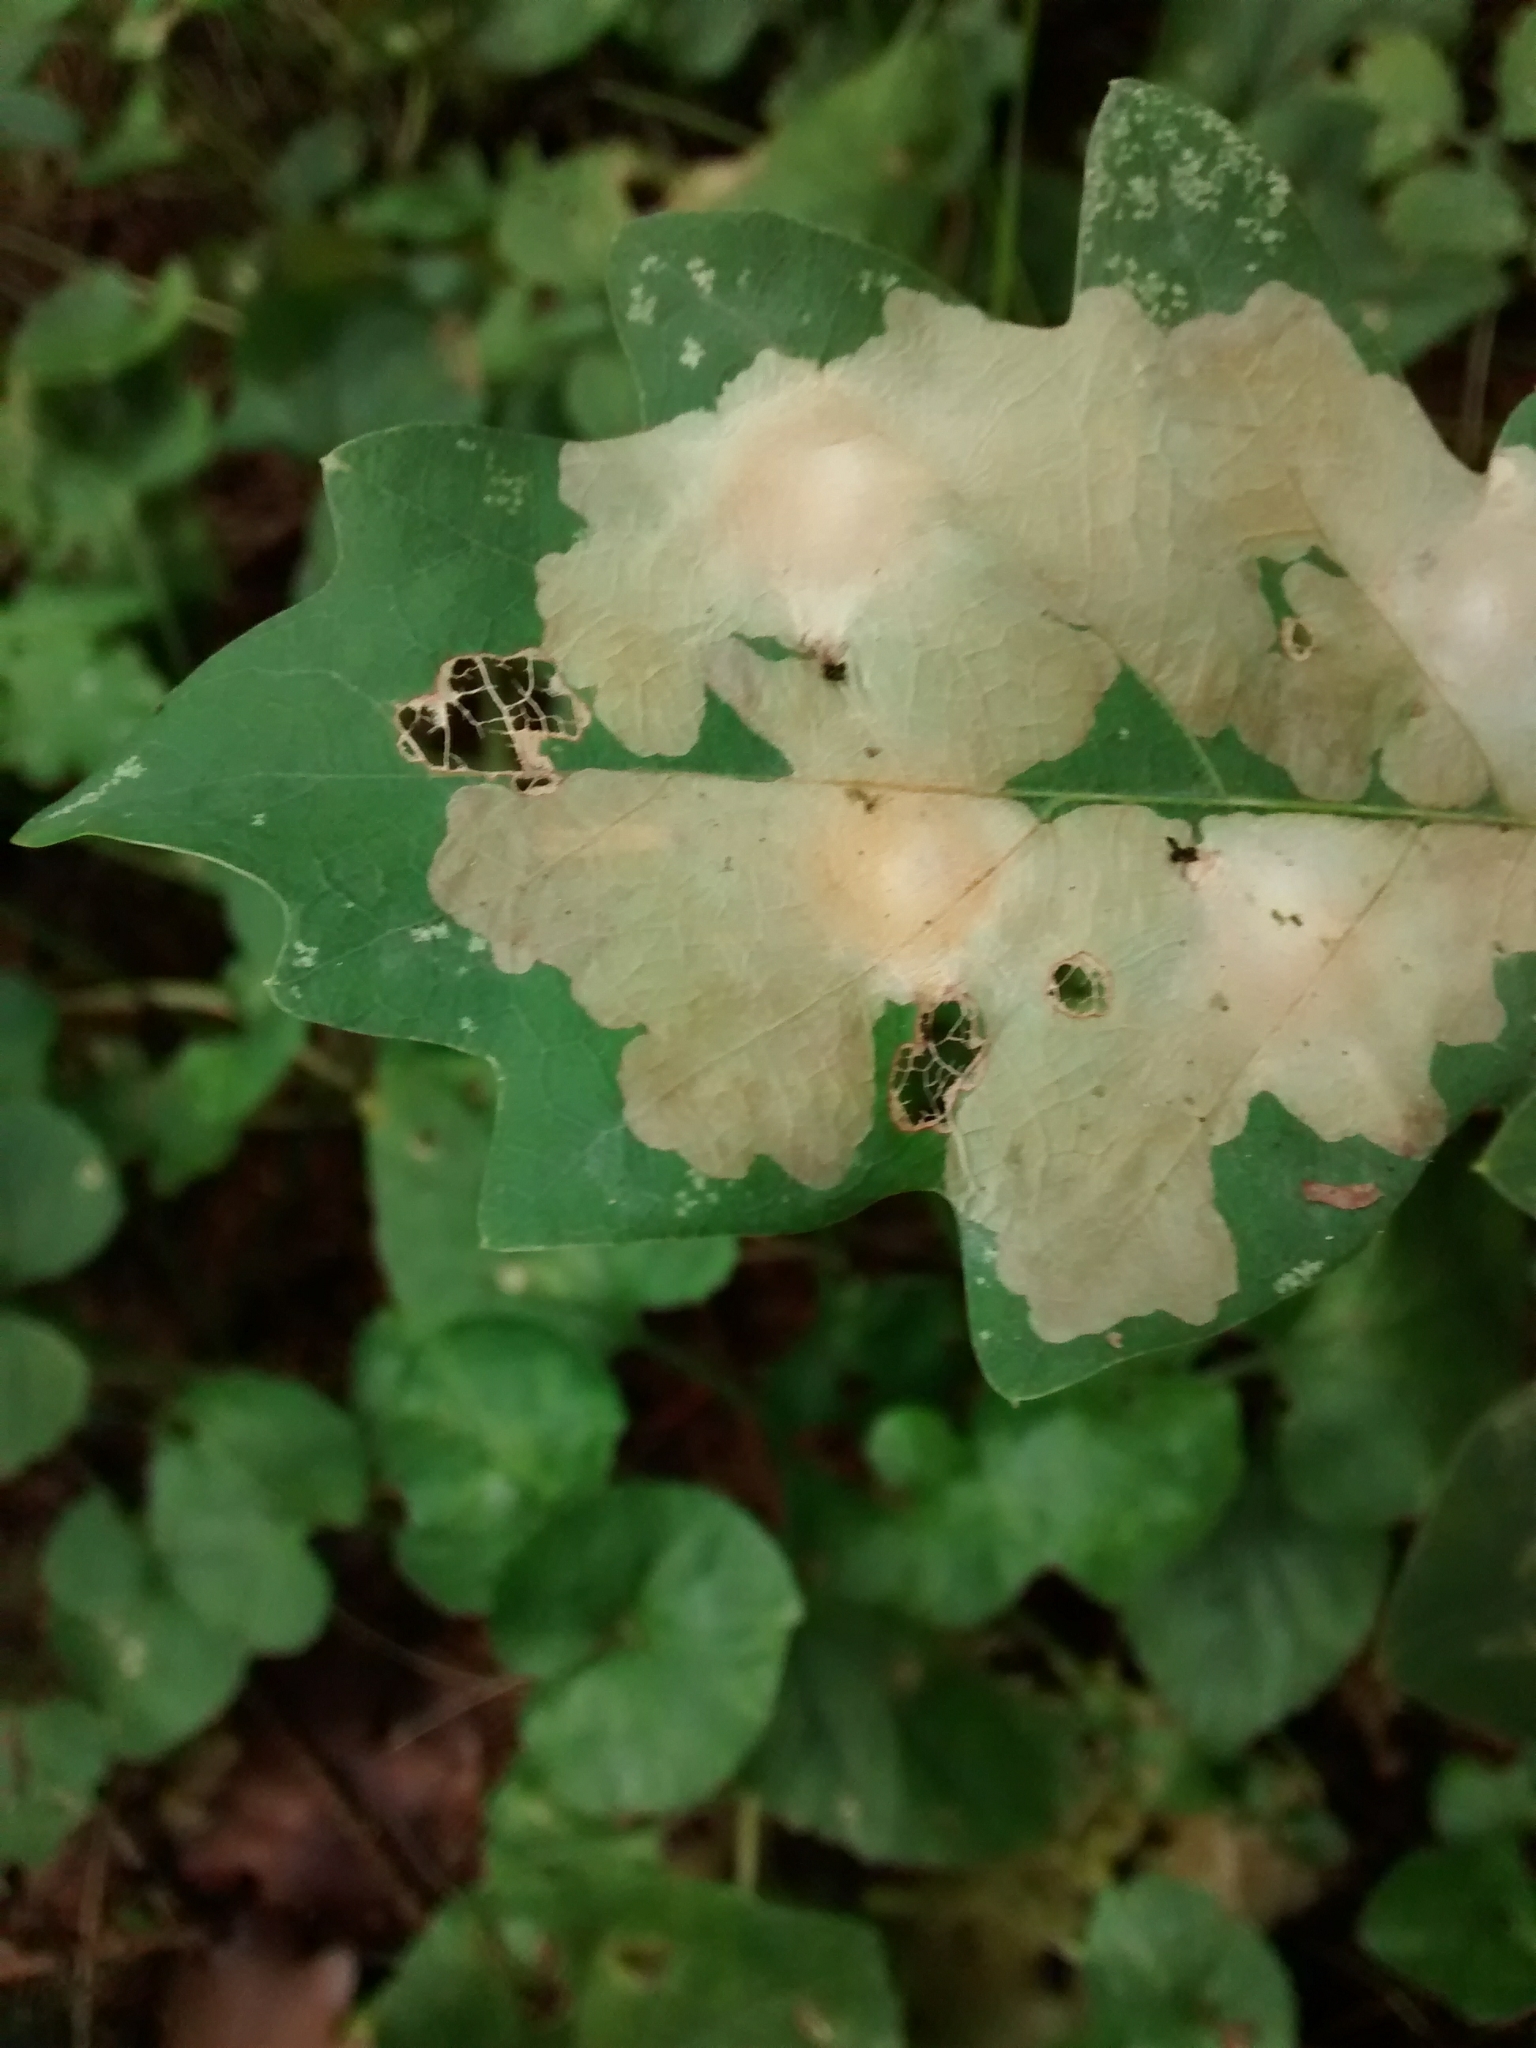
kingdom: Animalia
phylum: Arthropoda
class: Insecta
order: Lepidoptera
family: Tischeriidae
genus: Tischeria
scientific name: Tischeria ekebladella
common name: Oak carl
